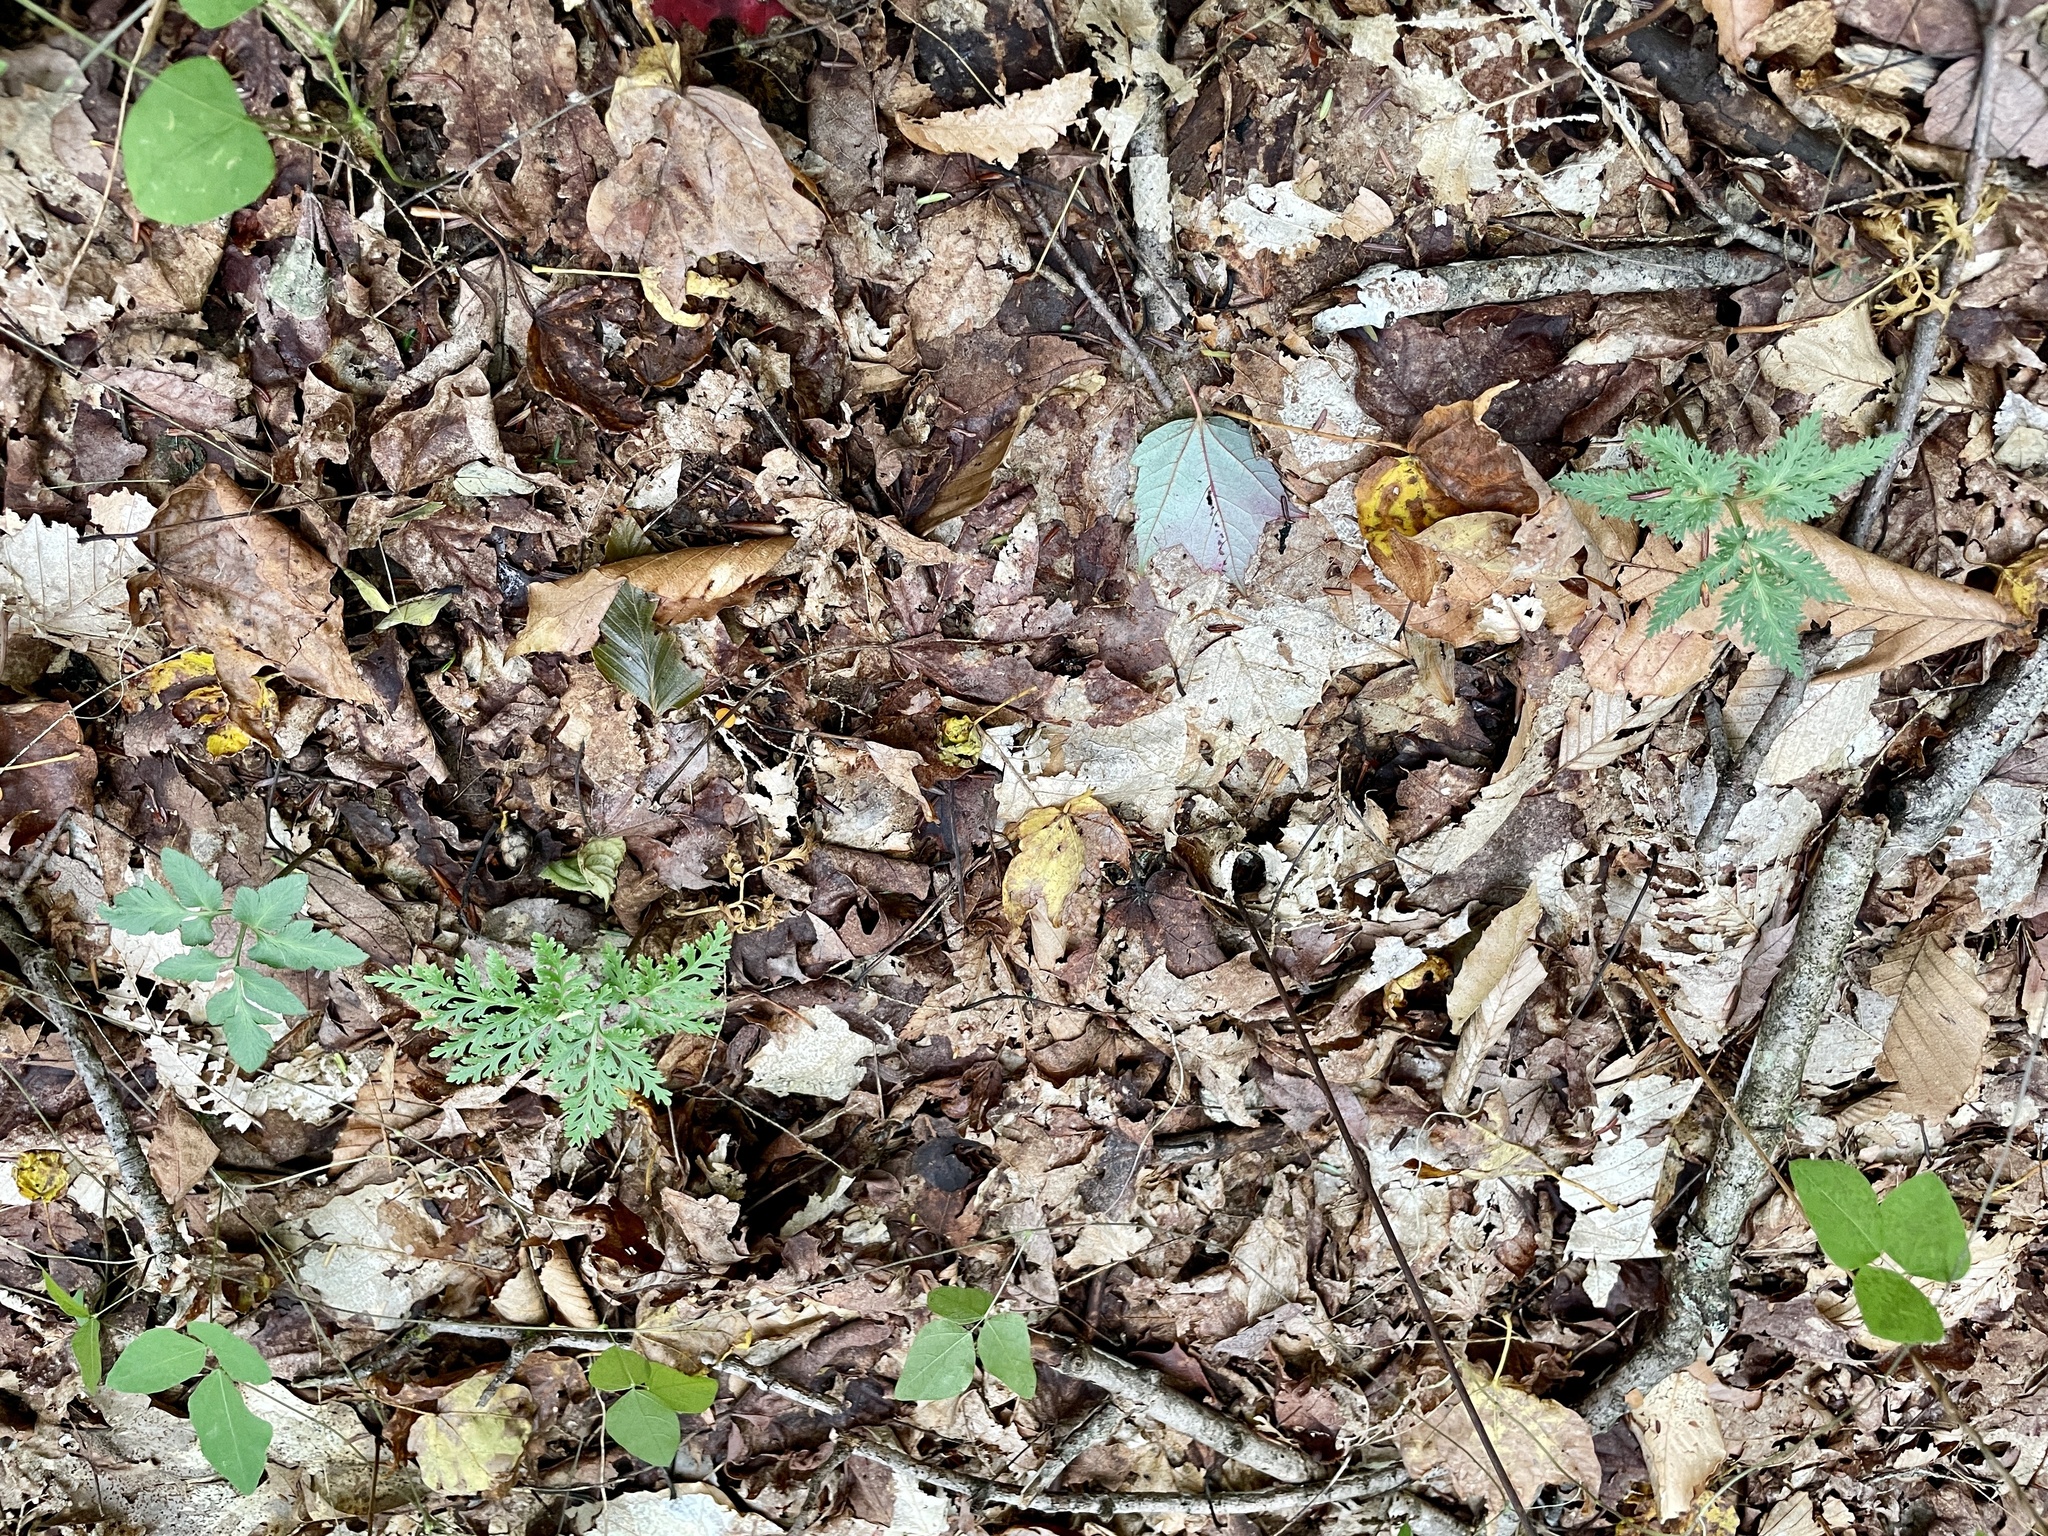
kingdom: Plantae
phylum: Tracheophyta
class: Polypodiopsida
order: Ophioglossales
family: Ophioglossaceae
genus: Sceptridium
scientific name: Sceptridium dissectum
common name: Cut-leaved grapefern
